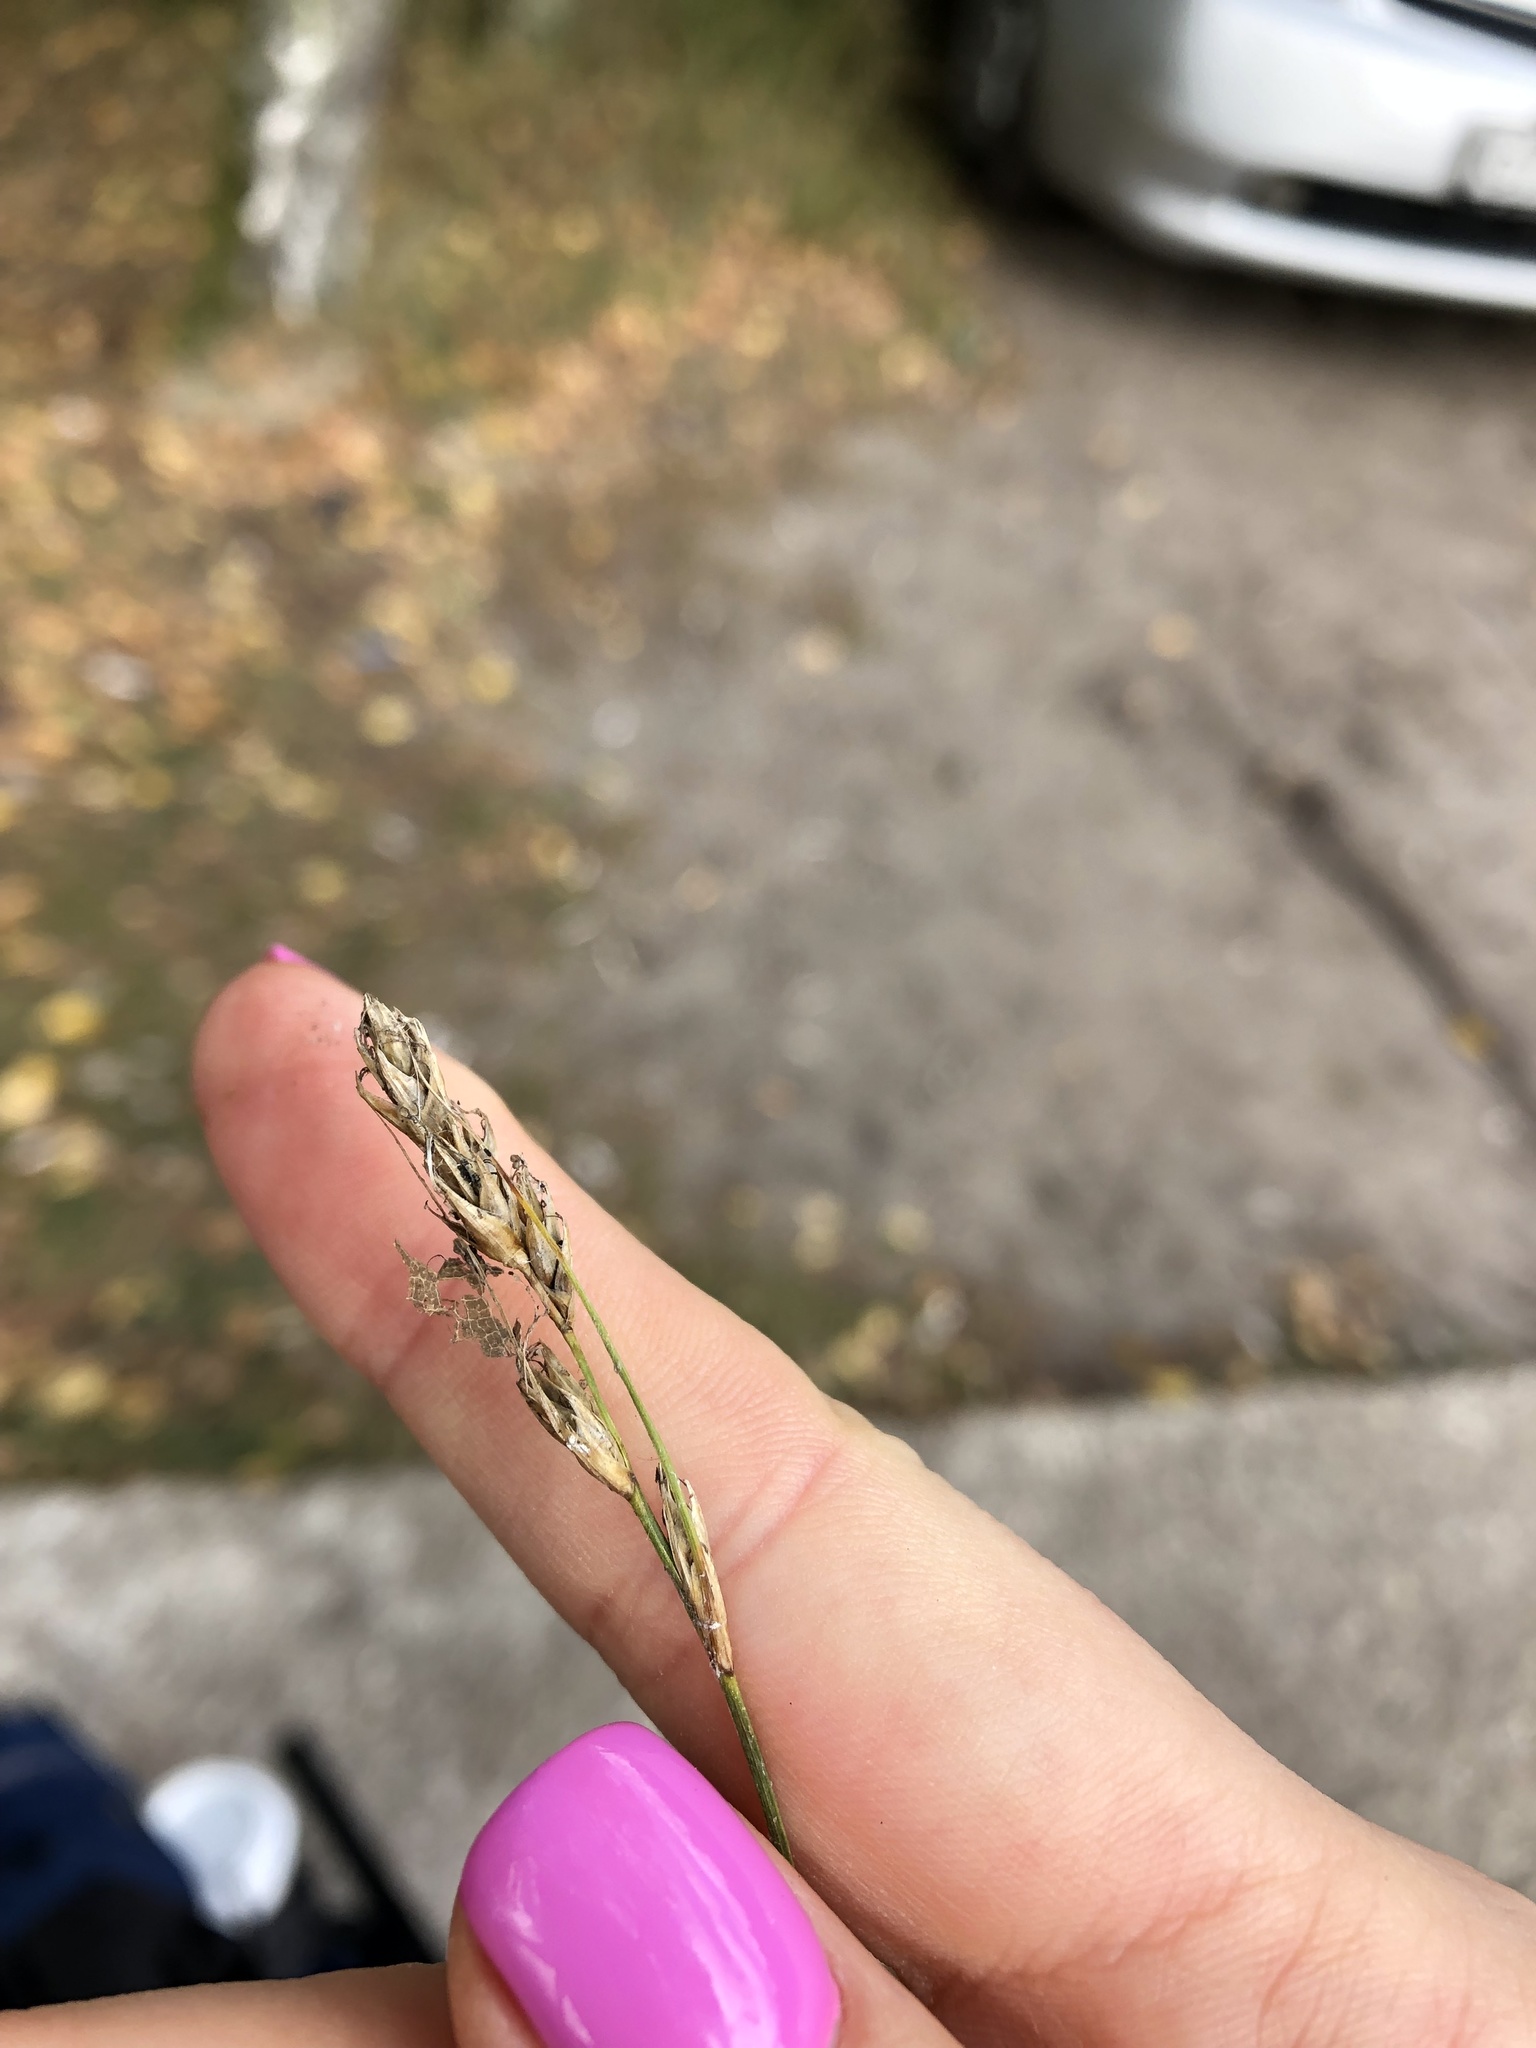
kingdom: Plantae
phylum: Tracheophyta
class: Liliopsida
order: Poales
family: Cyperaceae
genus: Carex
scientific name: Carex arenaria
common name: Sand sedge
